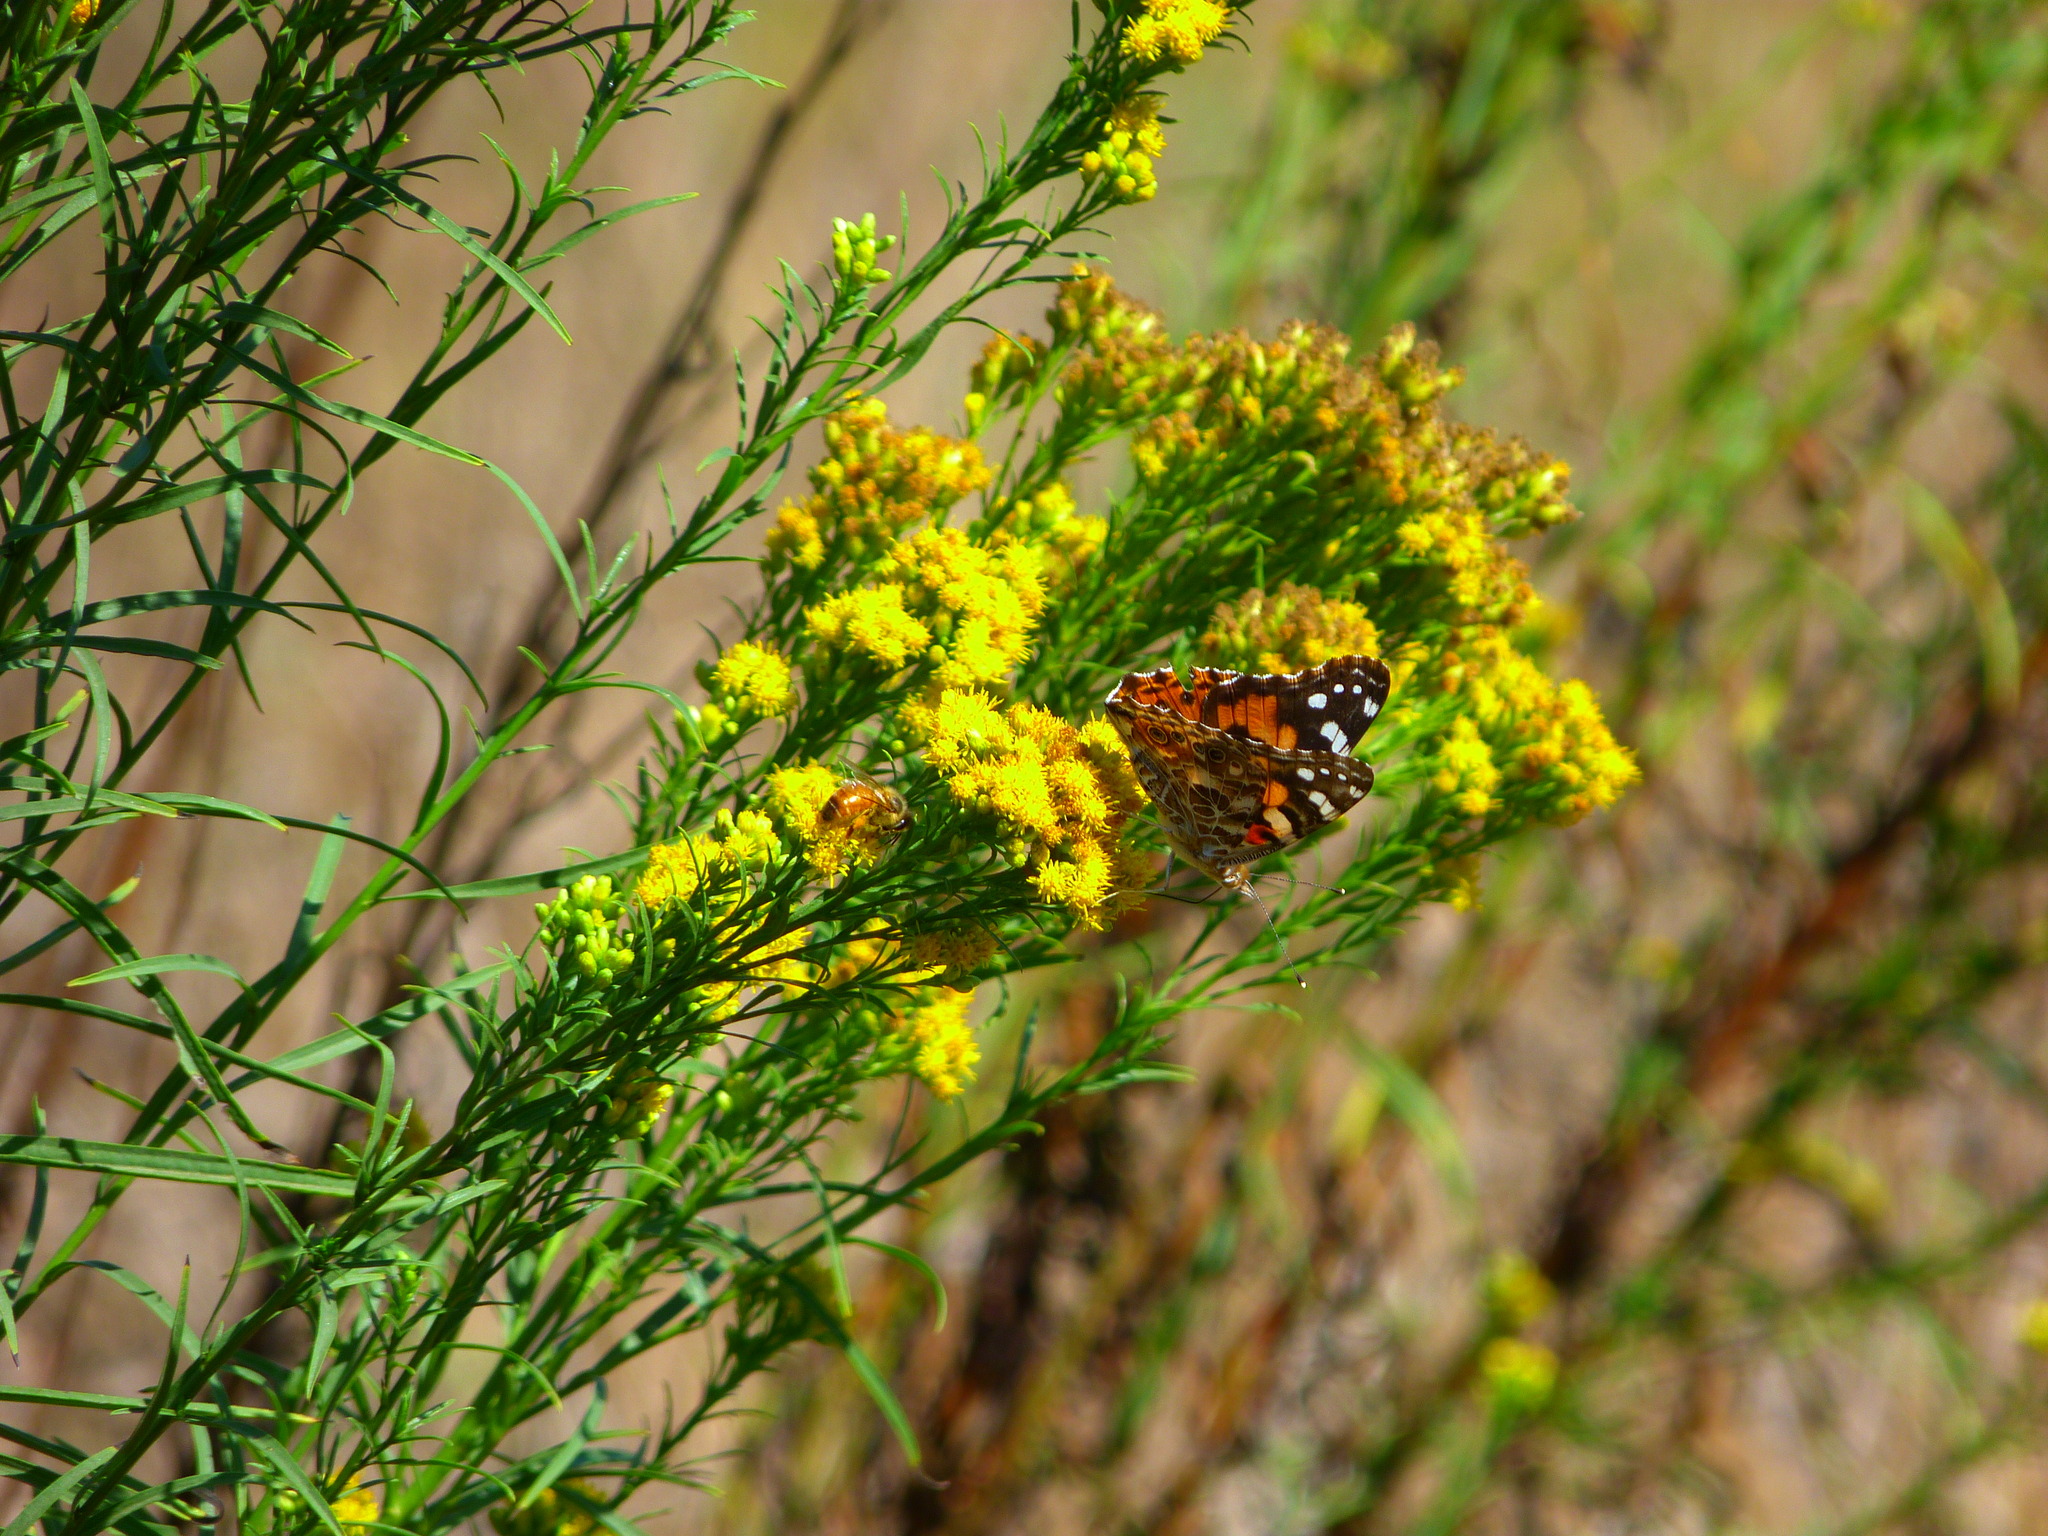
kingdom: Animalia
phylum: Arthropoda
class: Insecta
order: Lepidoptera
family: Nymphalidae
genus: Vanessa
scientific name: Vanessa cardui
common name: Painted lady
